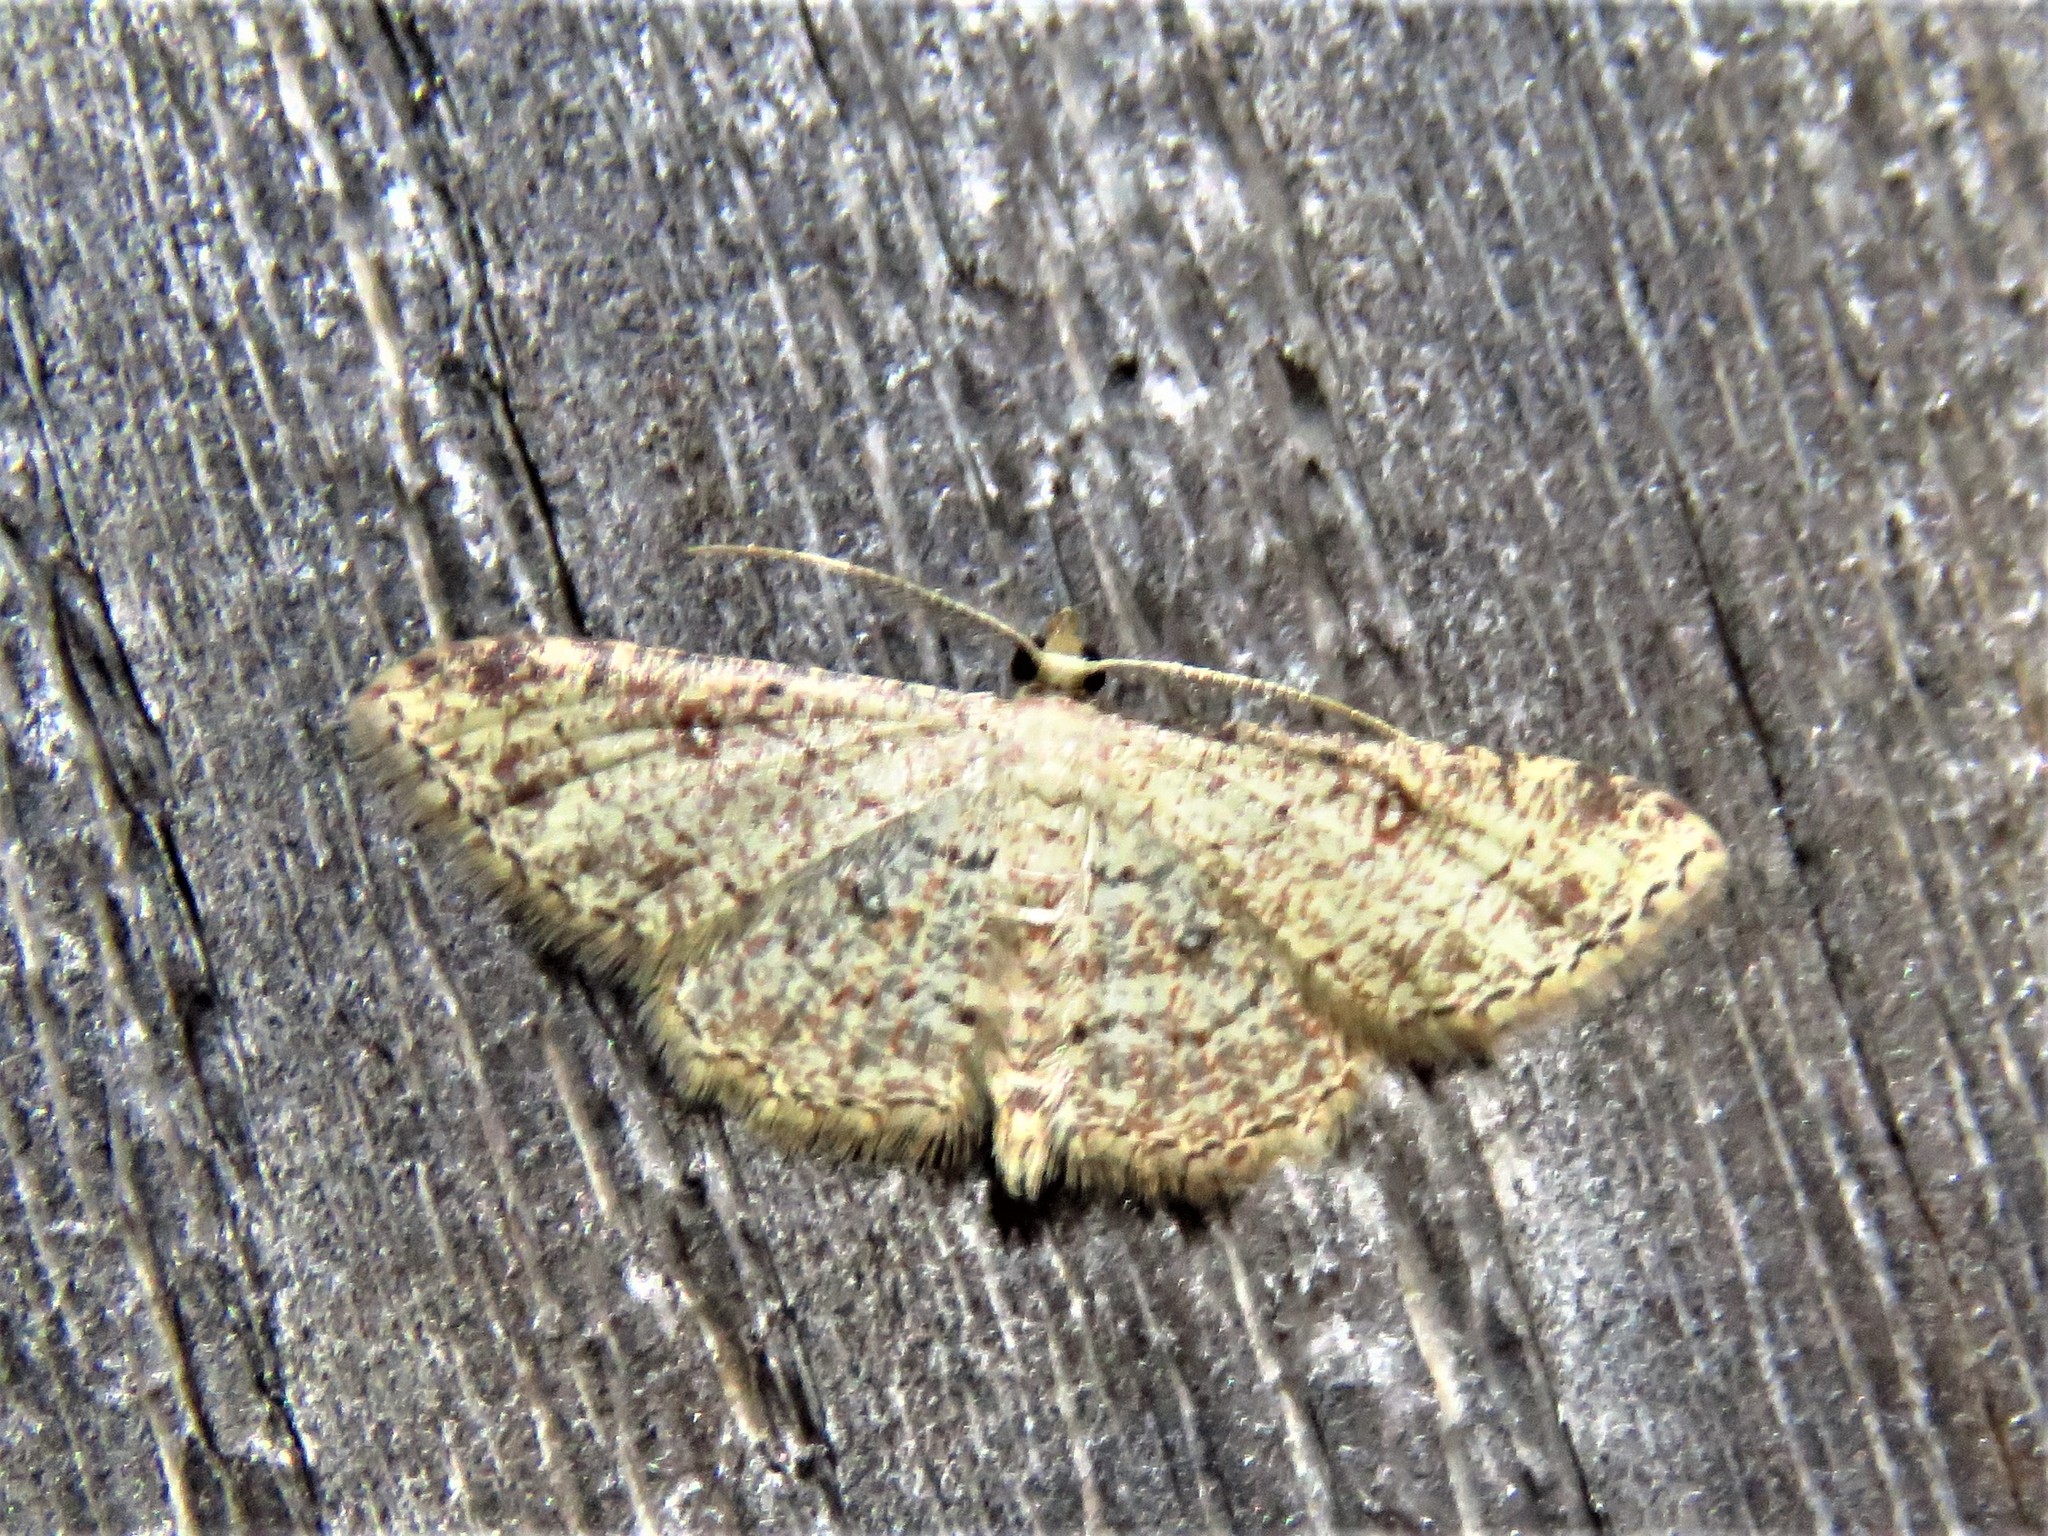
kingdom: Animalia
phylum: Arthropoda
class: Insecta
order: Lepidoptera
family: Geometridae
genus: Cyclophora
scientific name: Cyclophora nanaria
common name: Cankerworm
